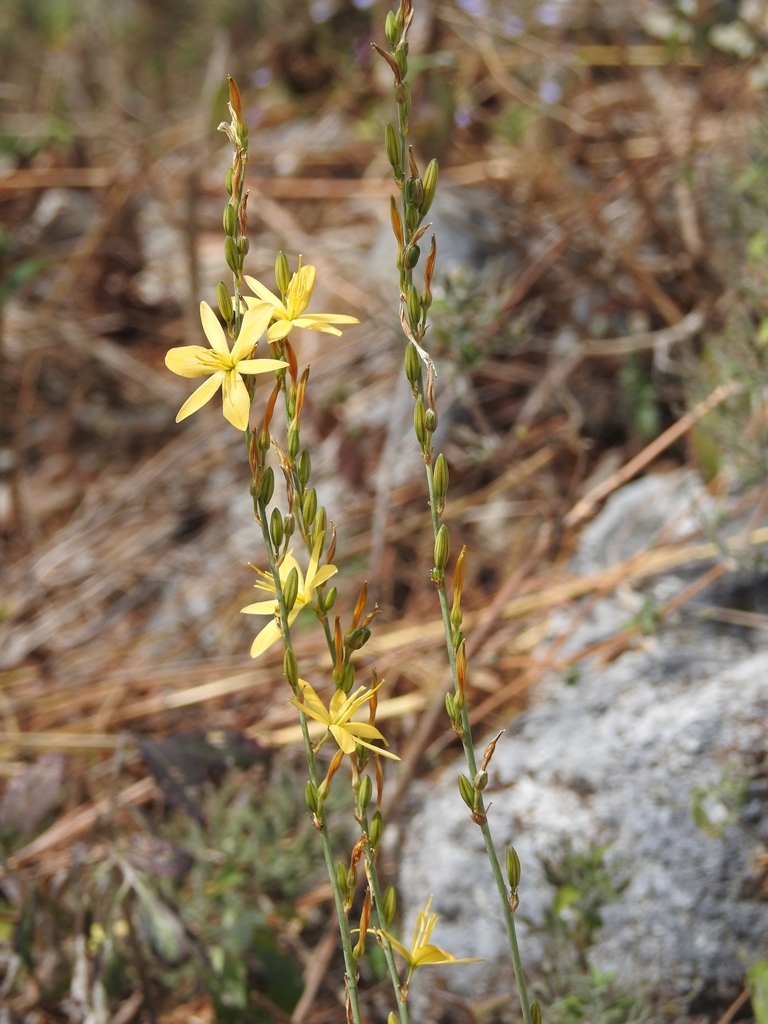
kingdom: Plantae
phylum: Tracheophyta
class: Liliopsida
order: Asparagales
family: Asparagaceae
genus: Echeandia
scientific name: Echeandia breedlovei
